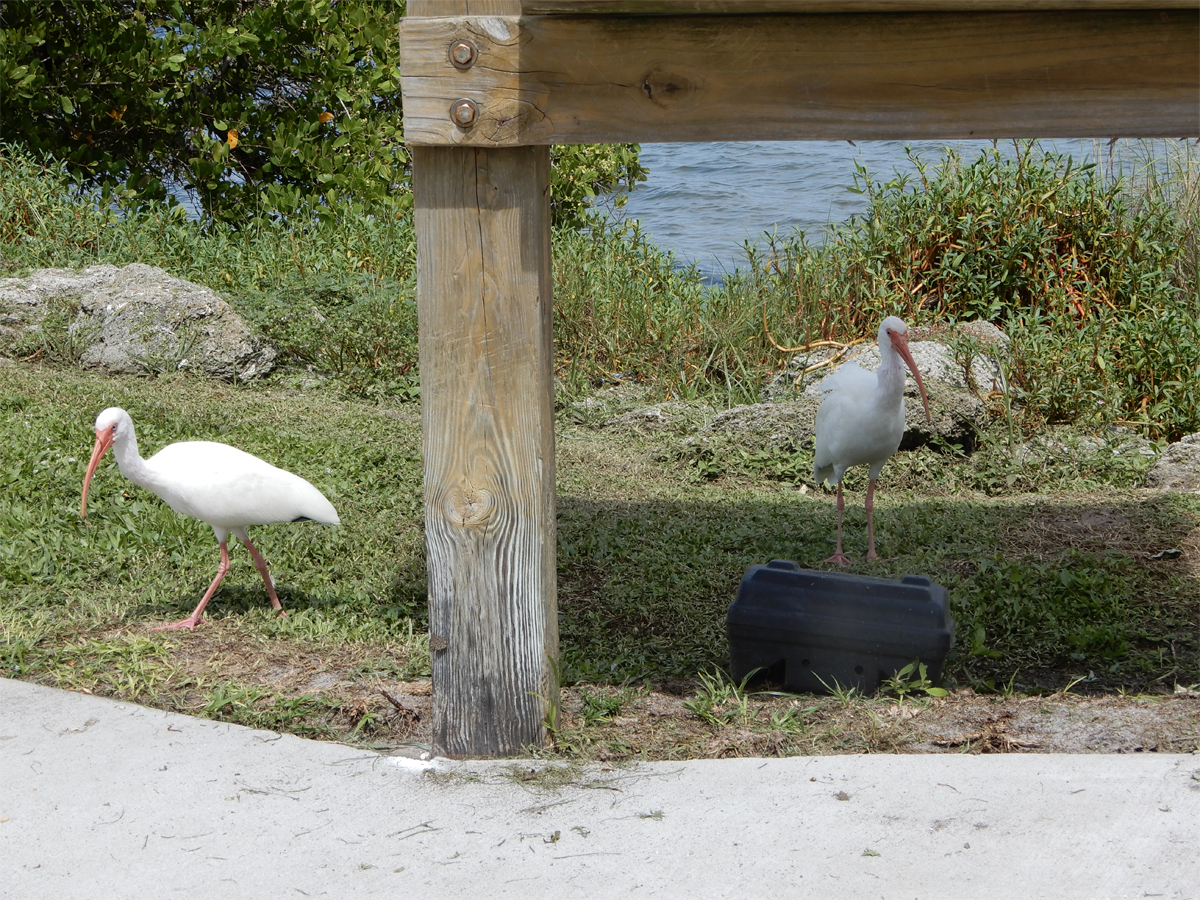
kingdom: Animalia
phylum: Chordata
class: Aves
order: Pelecaniformes
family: Threskiornithidae
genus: Eudocimus
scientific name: Eudocimus albus
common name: White ibis
